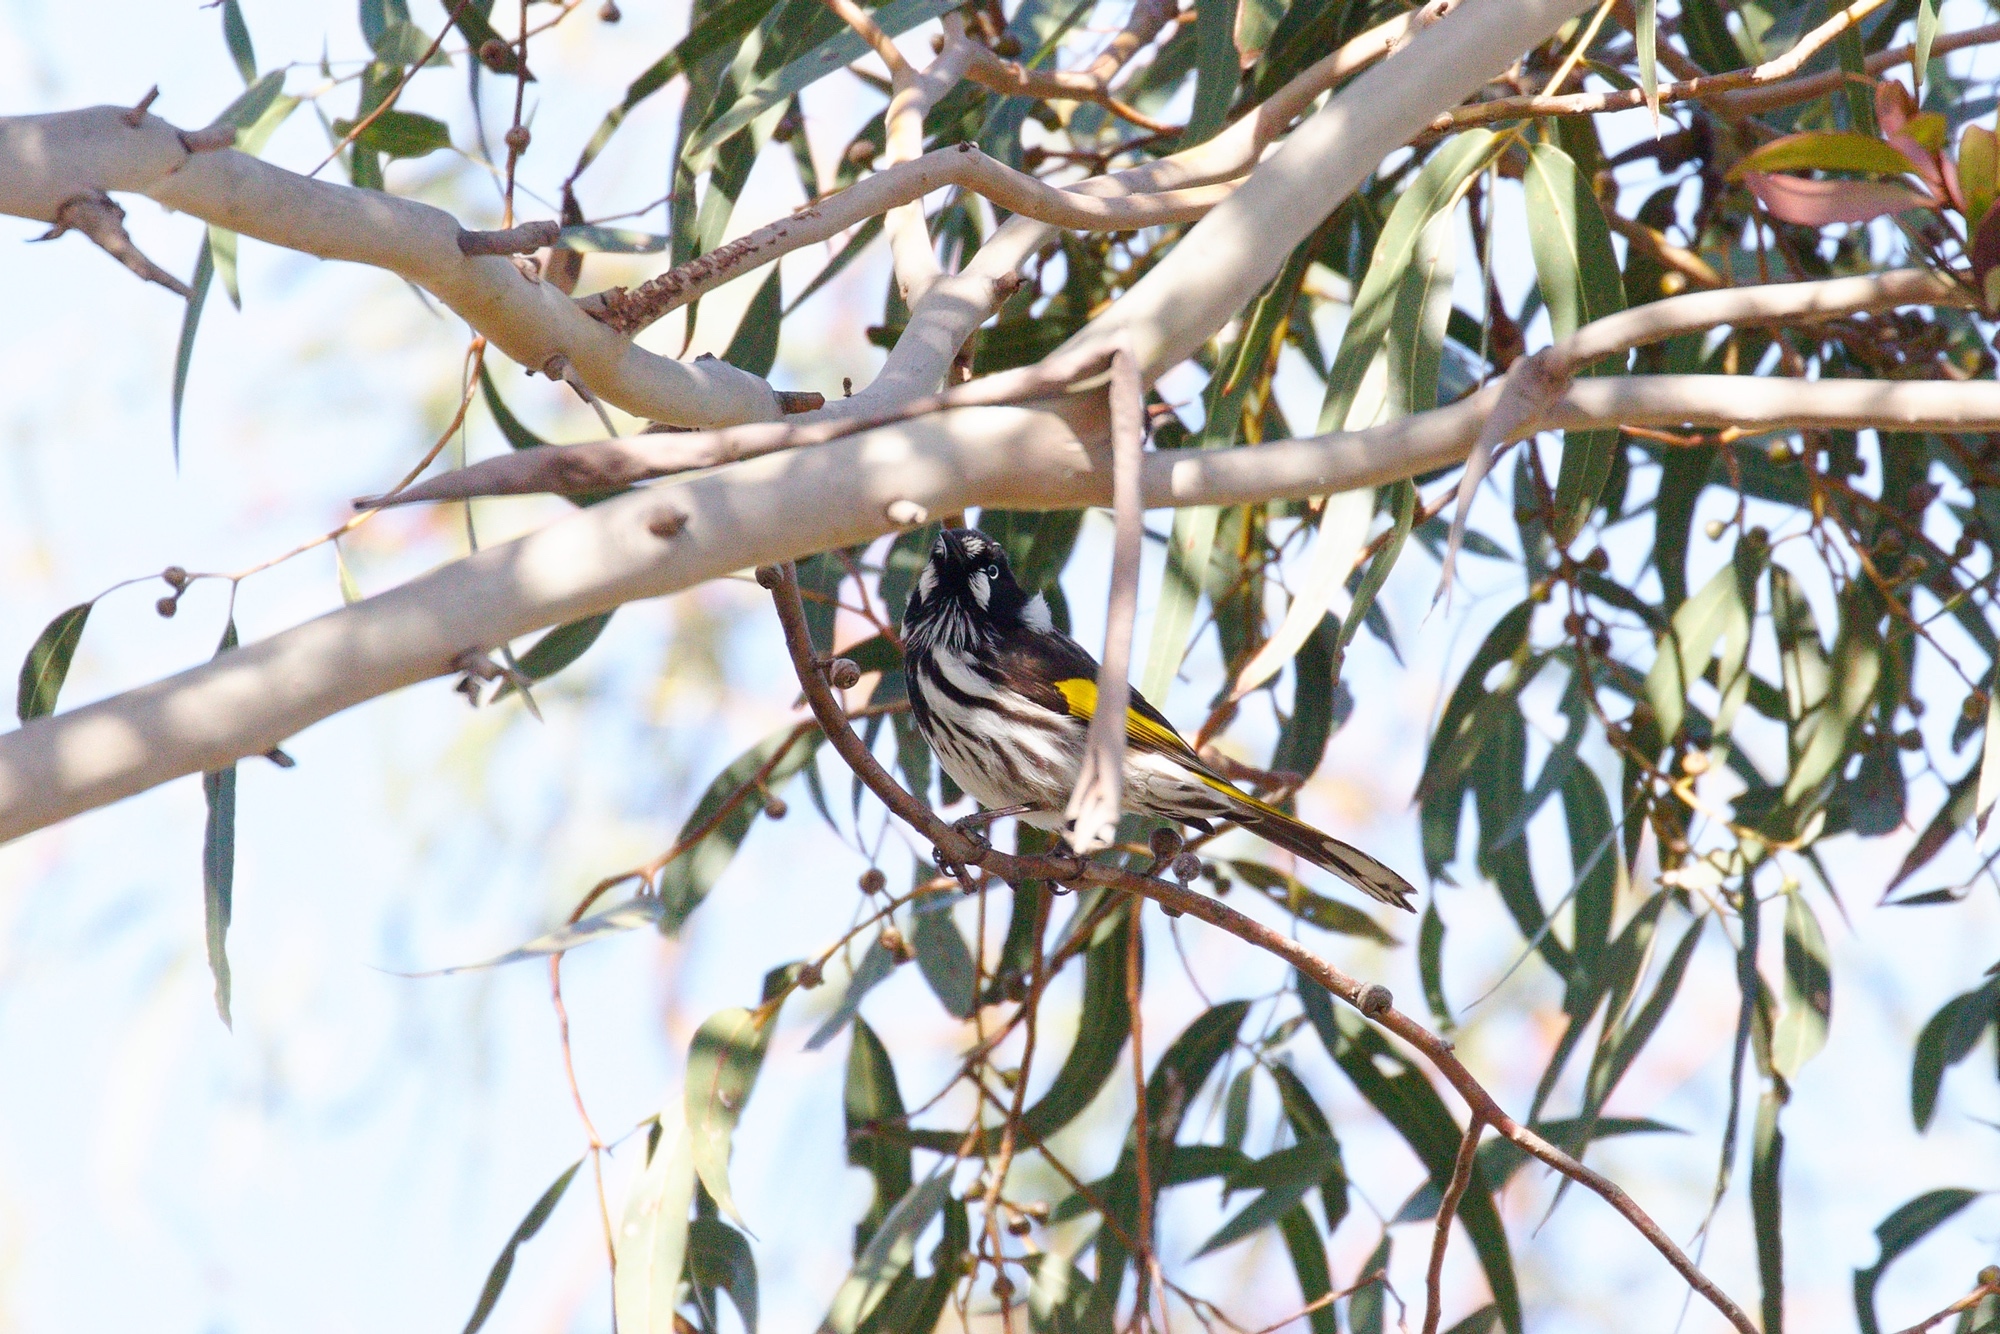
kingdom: Animalia
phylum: Chordata
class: Aves
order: Passeriformes
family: Meliphagidae
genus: Phylidonyris
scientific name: Phylidonyris novaehollandiae
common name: New holland honeyeater
